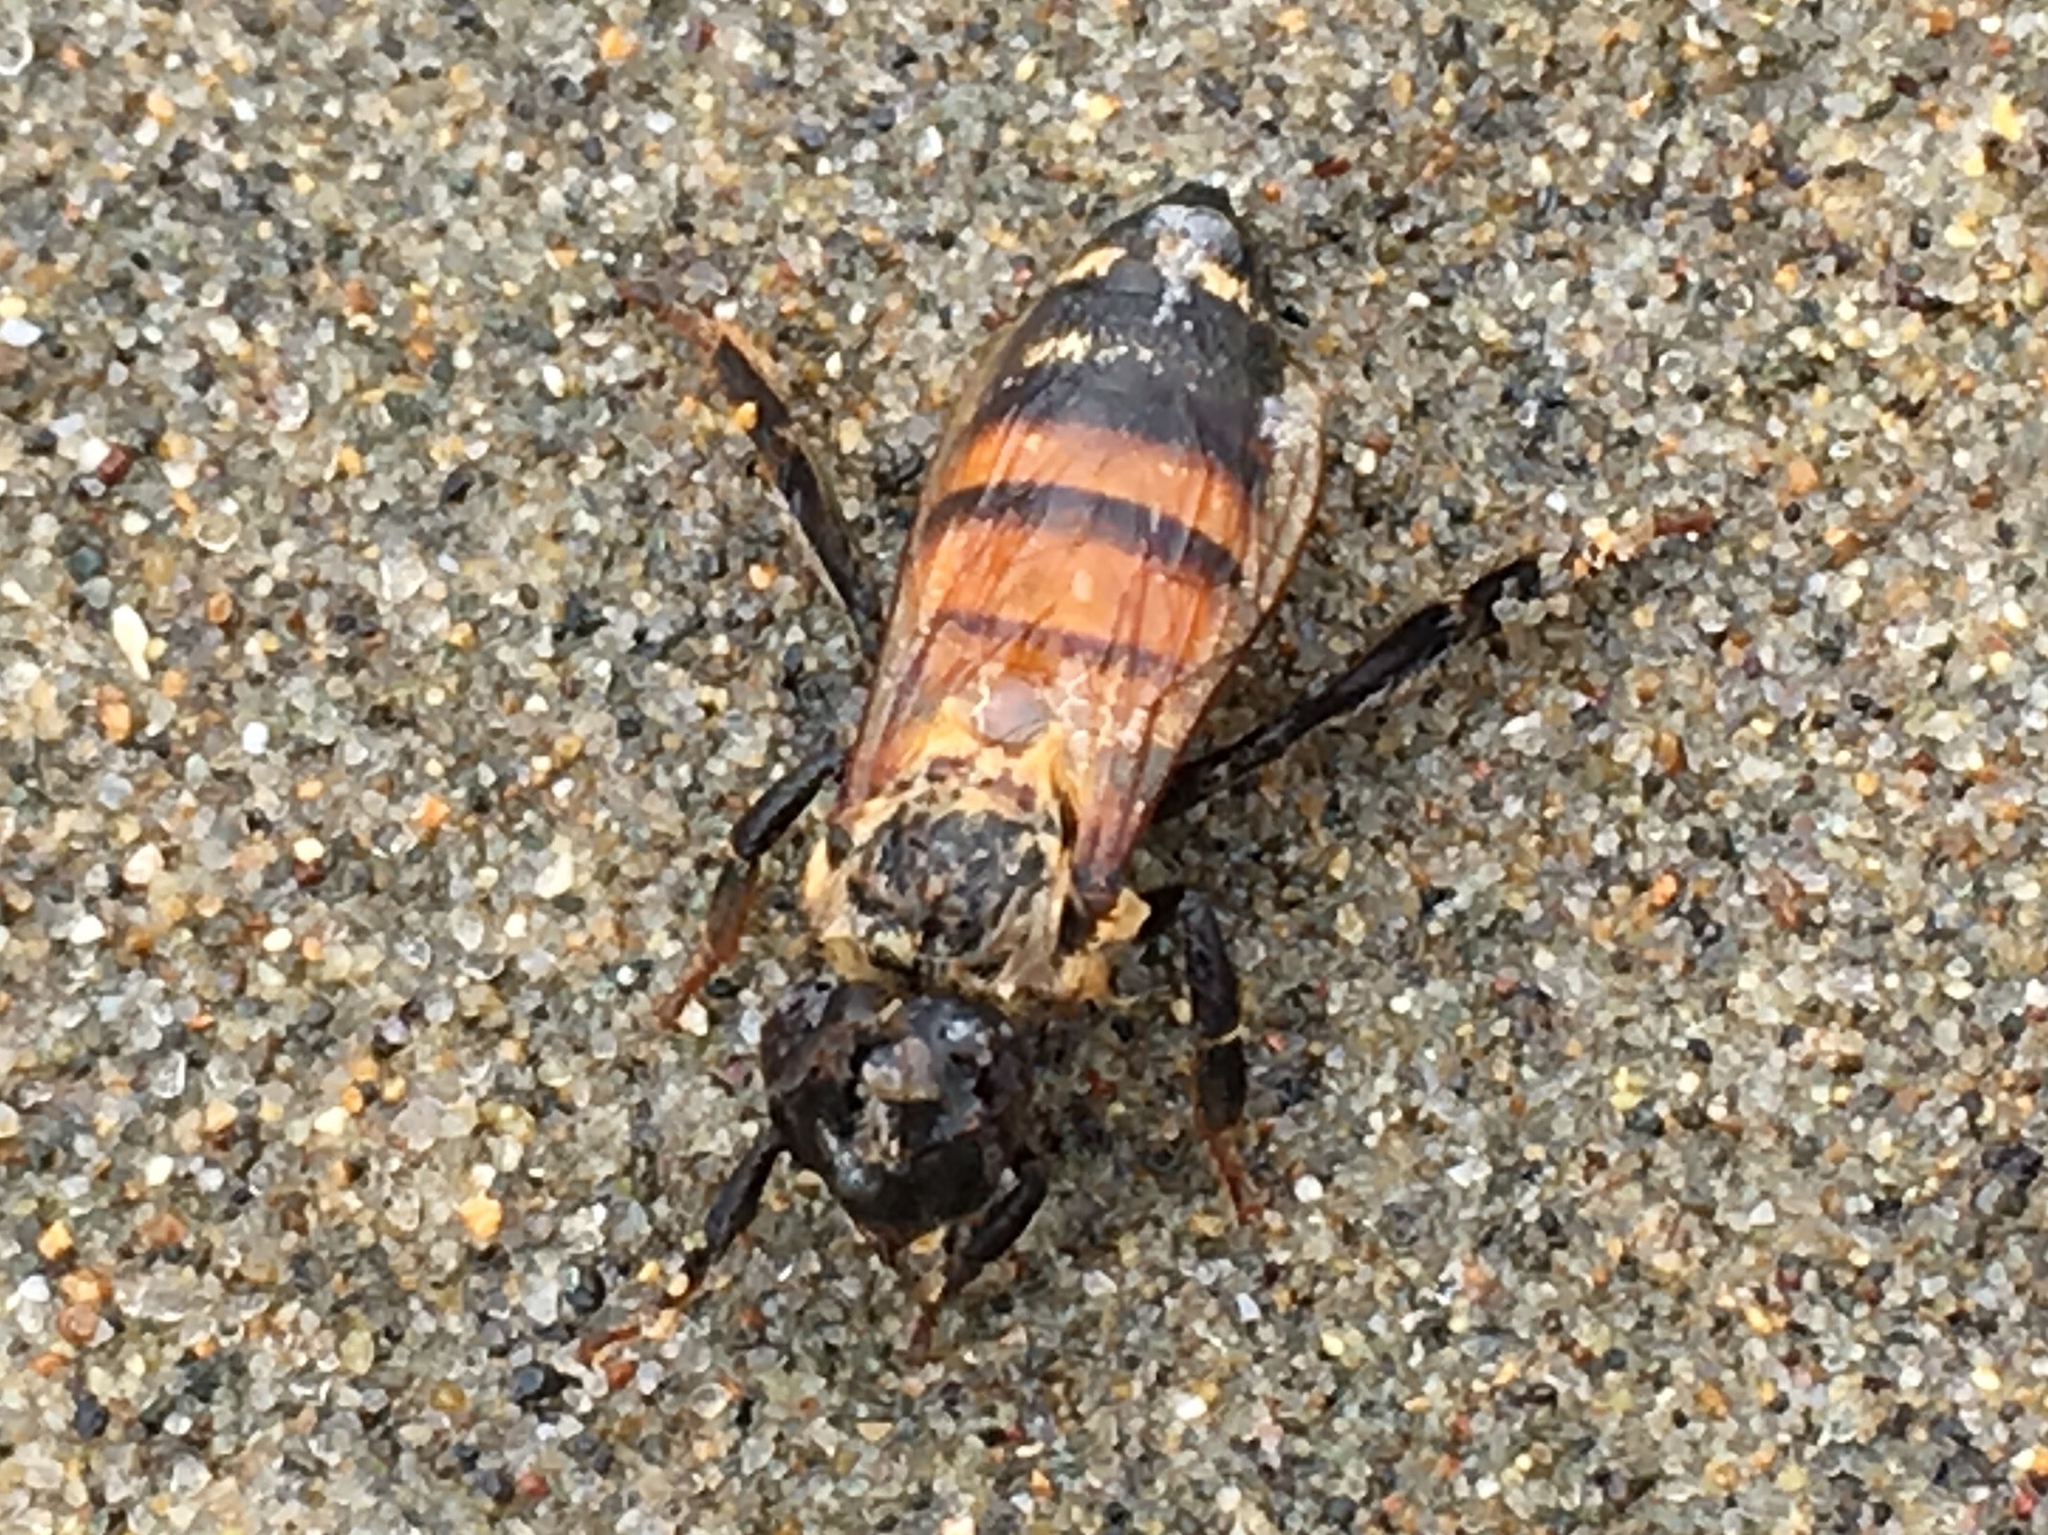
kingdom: Animalia
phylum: Arthropoda
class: Insecta
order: Hymenoptera
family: Apidae
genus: Apis
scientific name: Apis mellifera
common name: Honey bee
